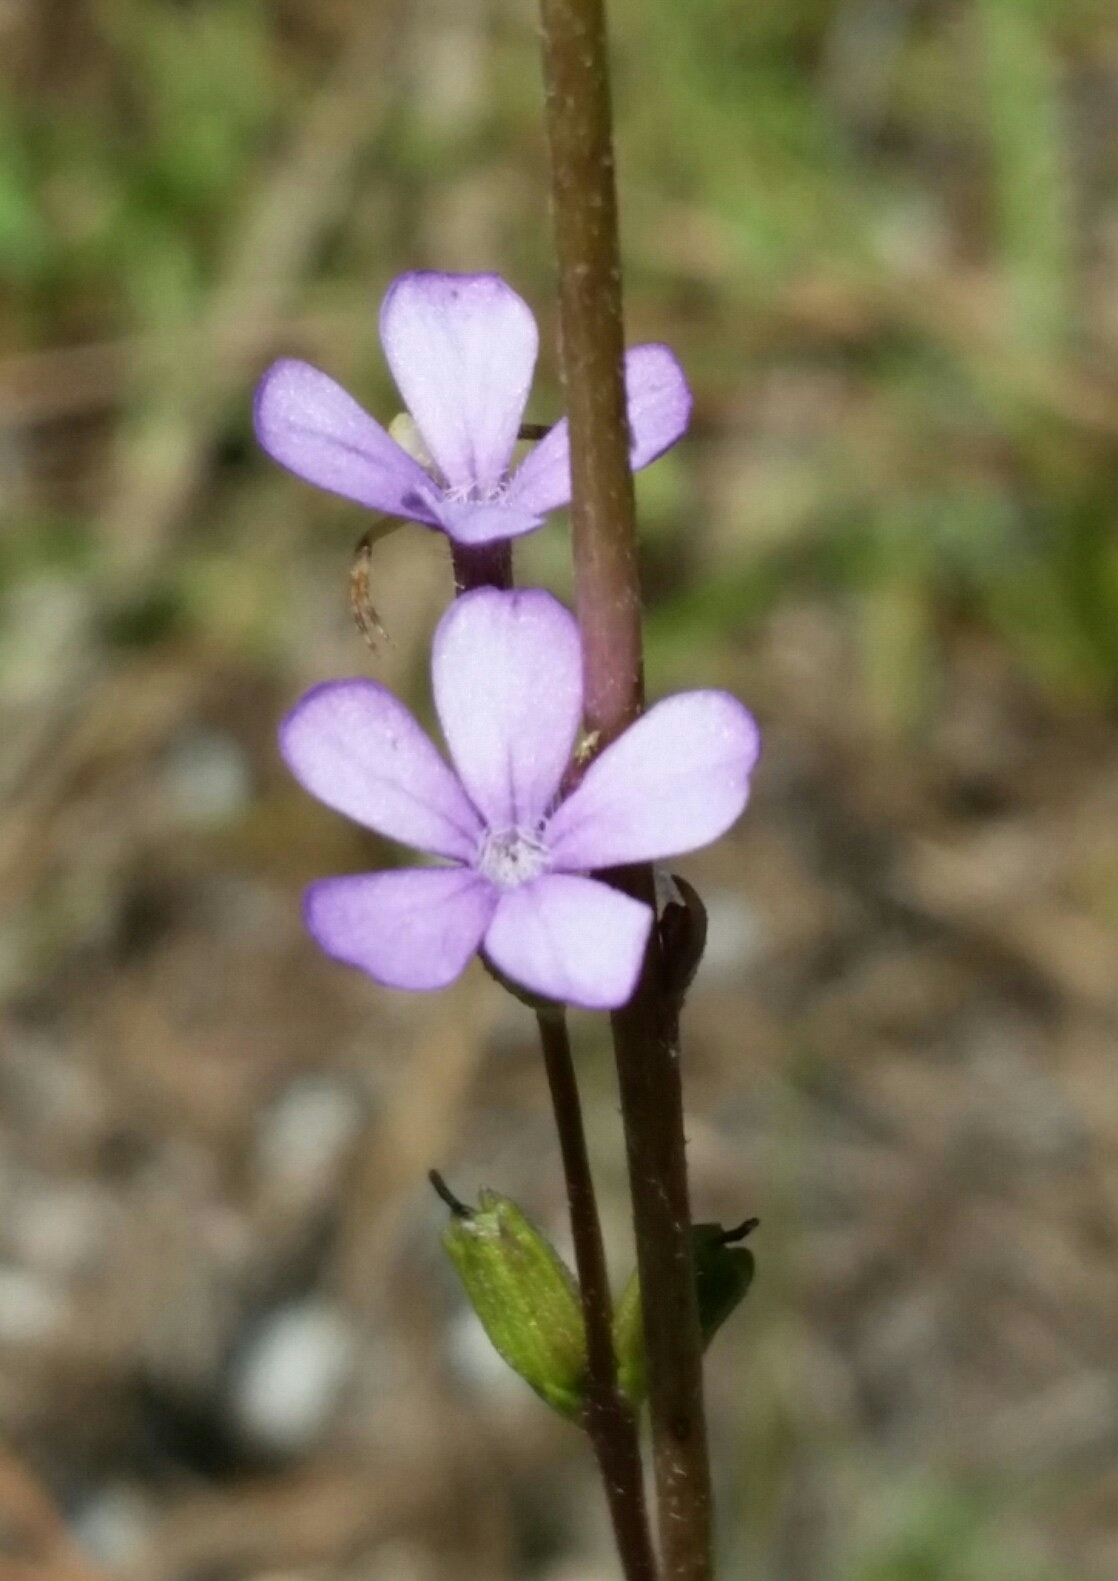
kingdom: Plantae
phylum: Tracheophyta
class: Magnoliopsida
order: Lamiales
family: Orobanchaceae
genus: Buchnera
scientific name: Buchnera floridana
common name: Florida bluehearts
